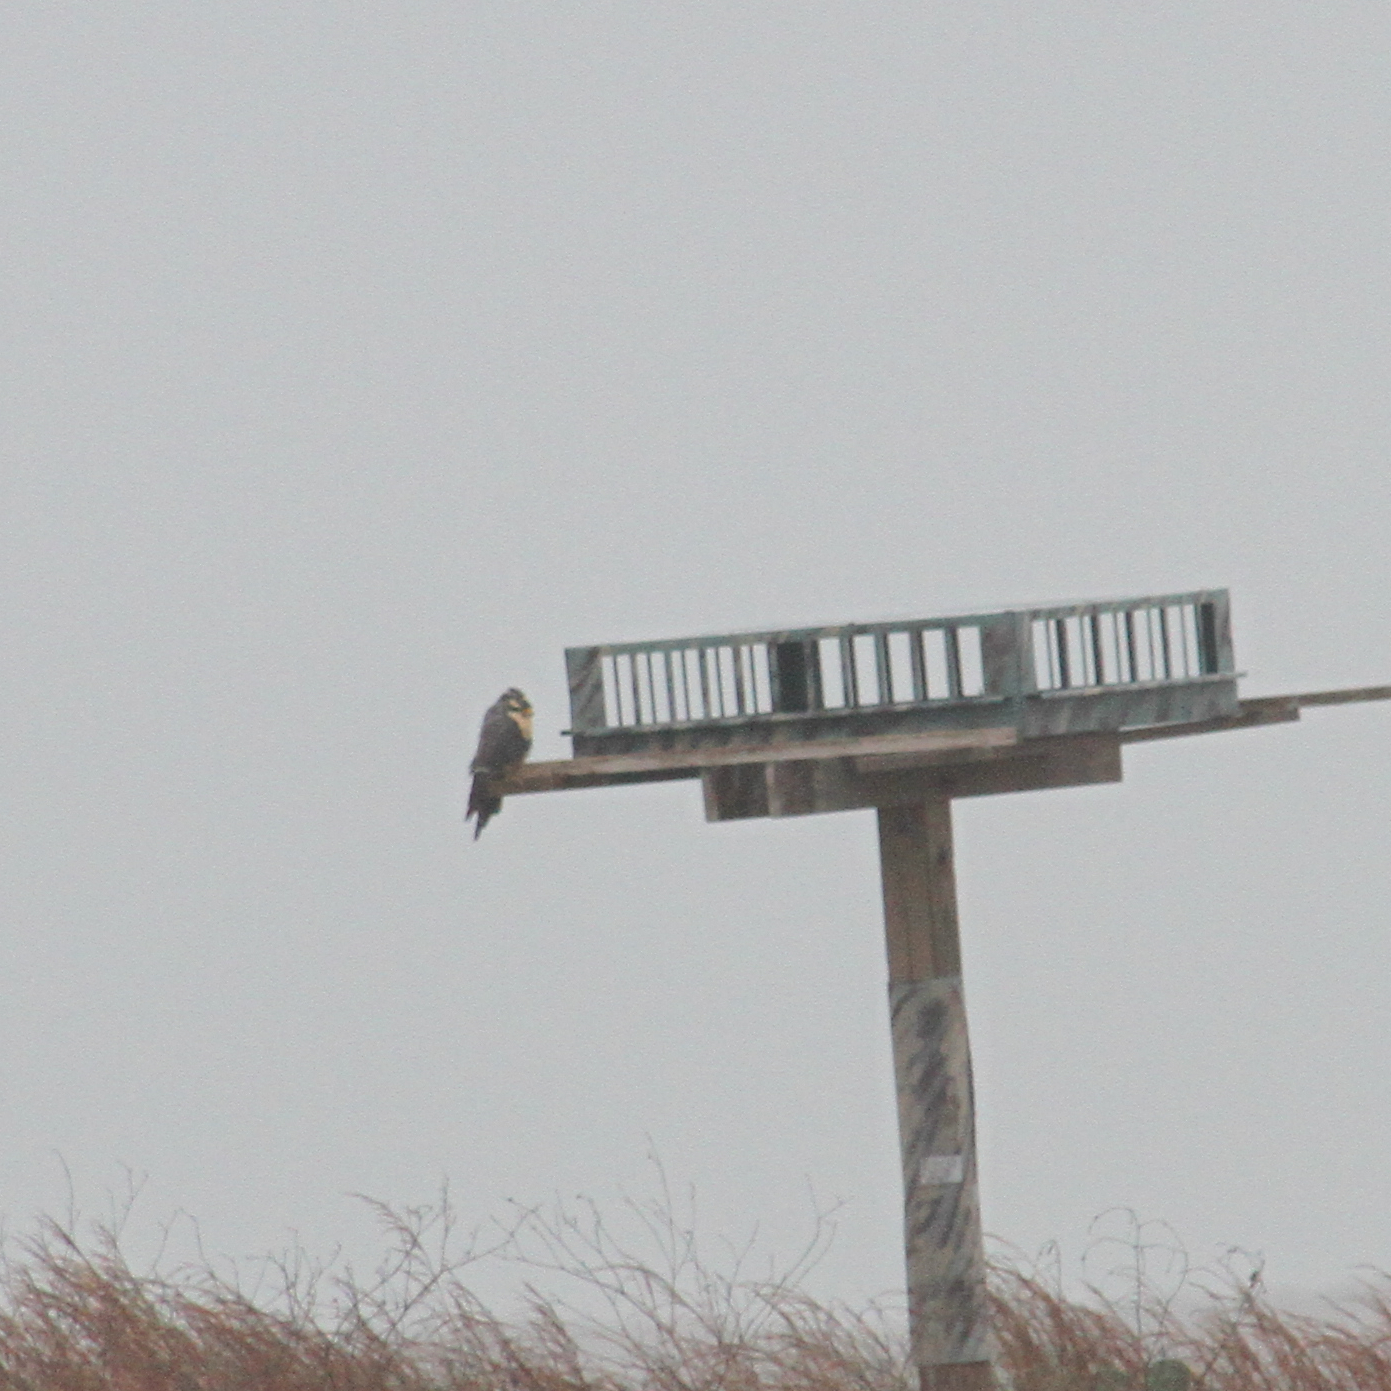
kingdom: Animalia
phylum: Chordata
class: Aves
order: Falconiformes
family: Falconidae
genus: Falco
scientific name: Falco femoralis
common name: Aplomado falcon
